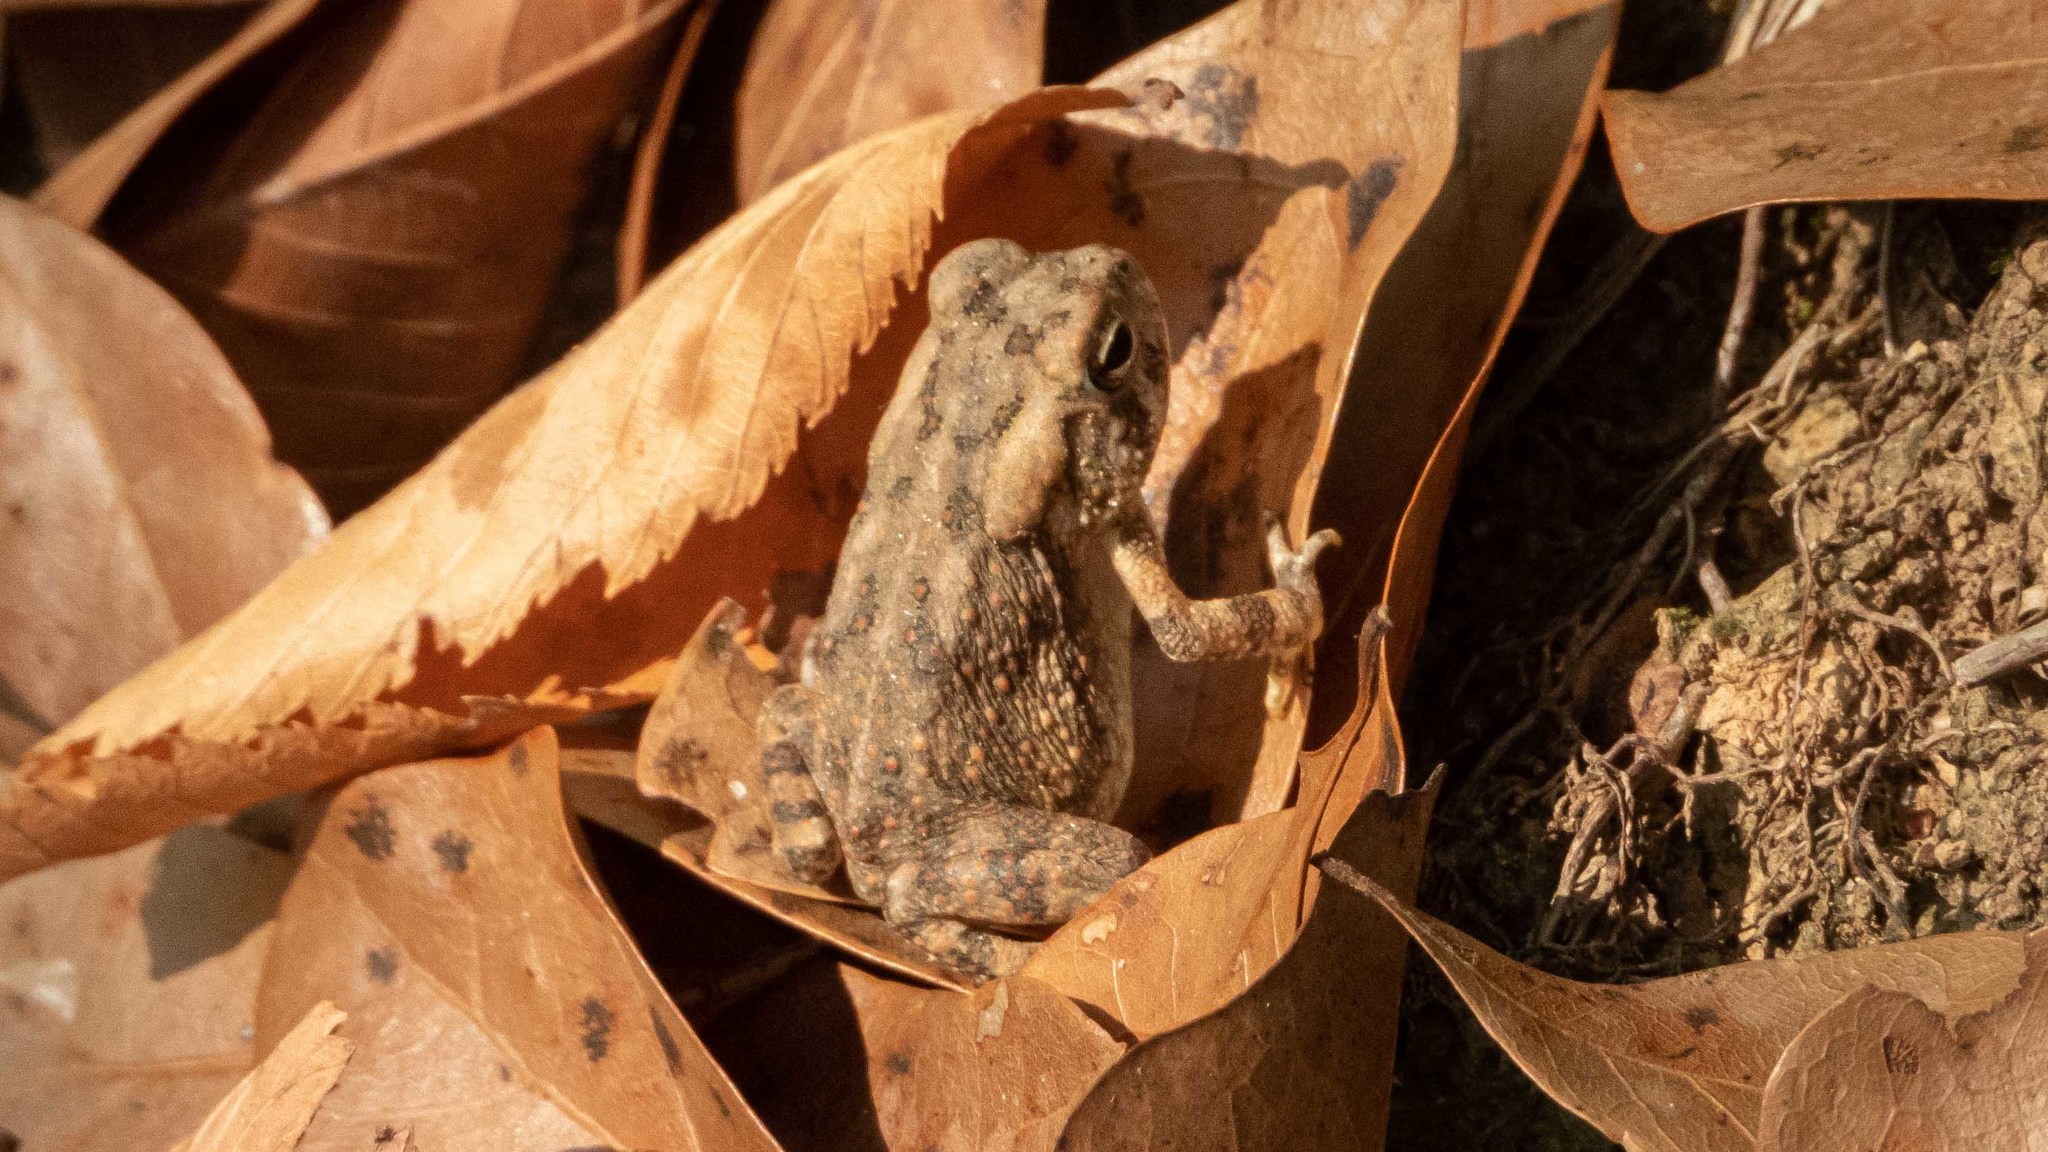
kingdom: Animalia
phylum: Chordata
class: Amphibia
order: Anura
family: Bufonidae
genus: Anaxyrus
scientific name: Anaxyrus fowleri
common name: Fowler's toad
